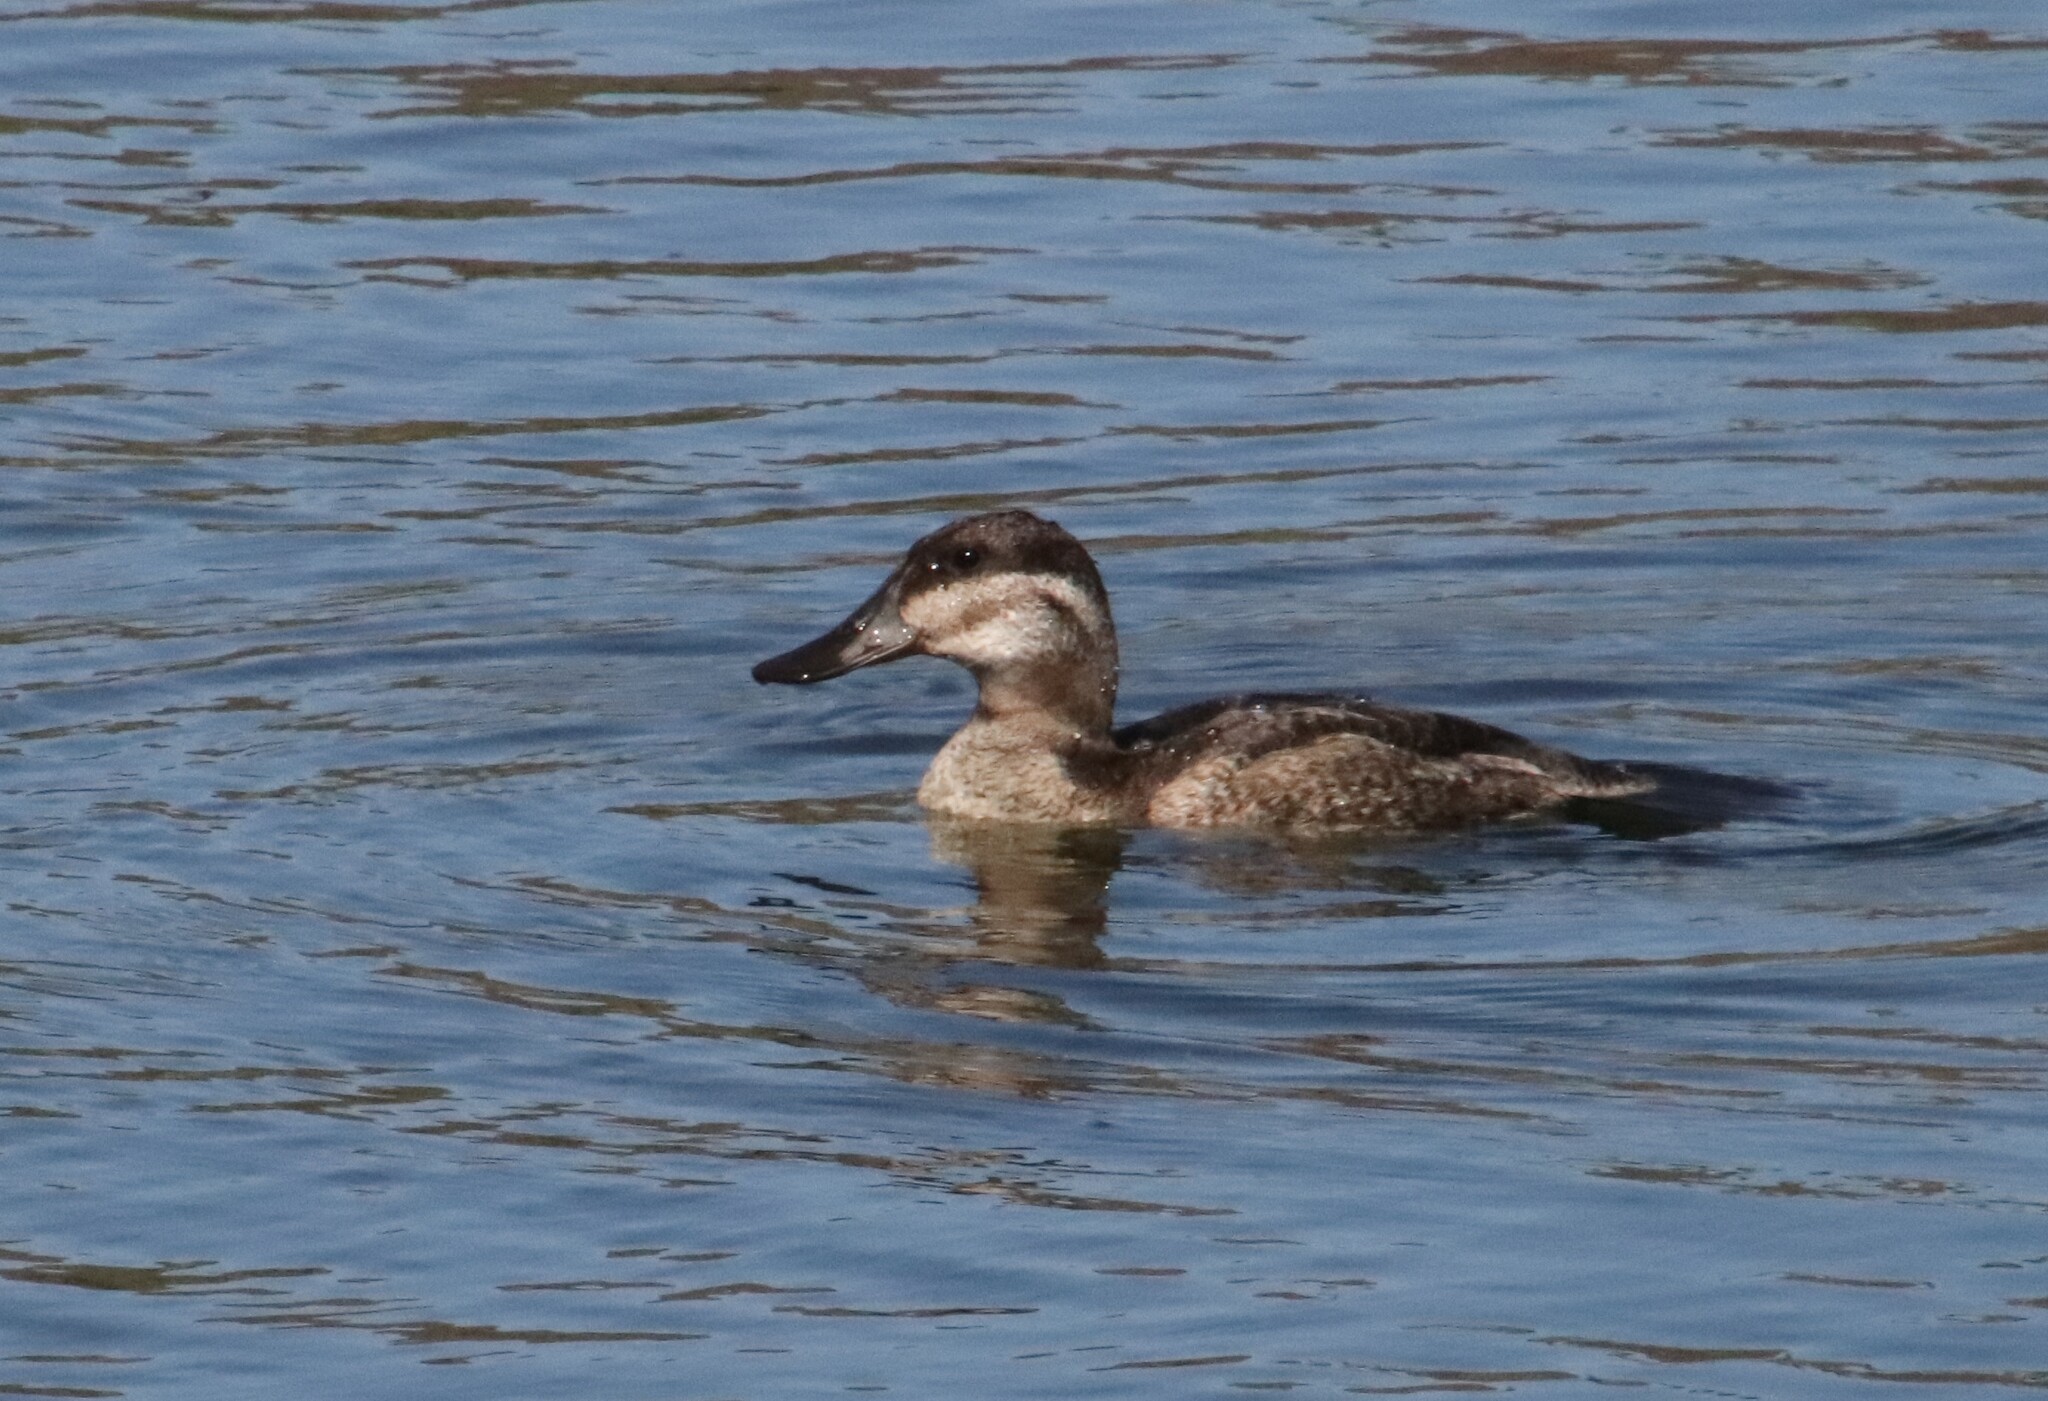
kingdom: Animalia
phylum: Chordata
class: Aves
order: Anseriformes
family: Anatidae
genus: Oxyura
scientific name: Oxyura jamaicensis
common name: Ruddy duck
